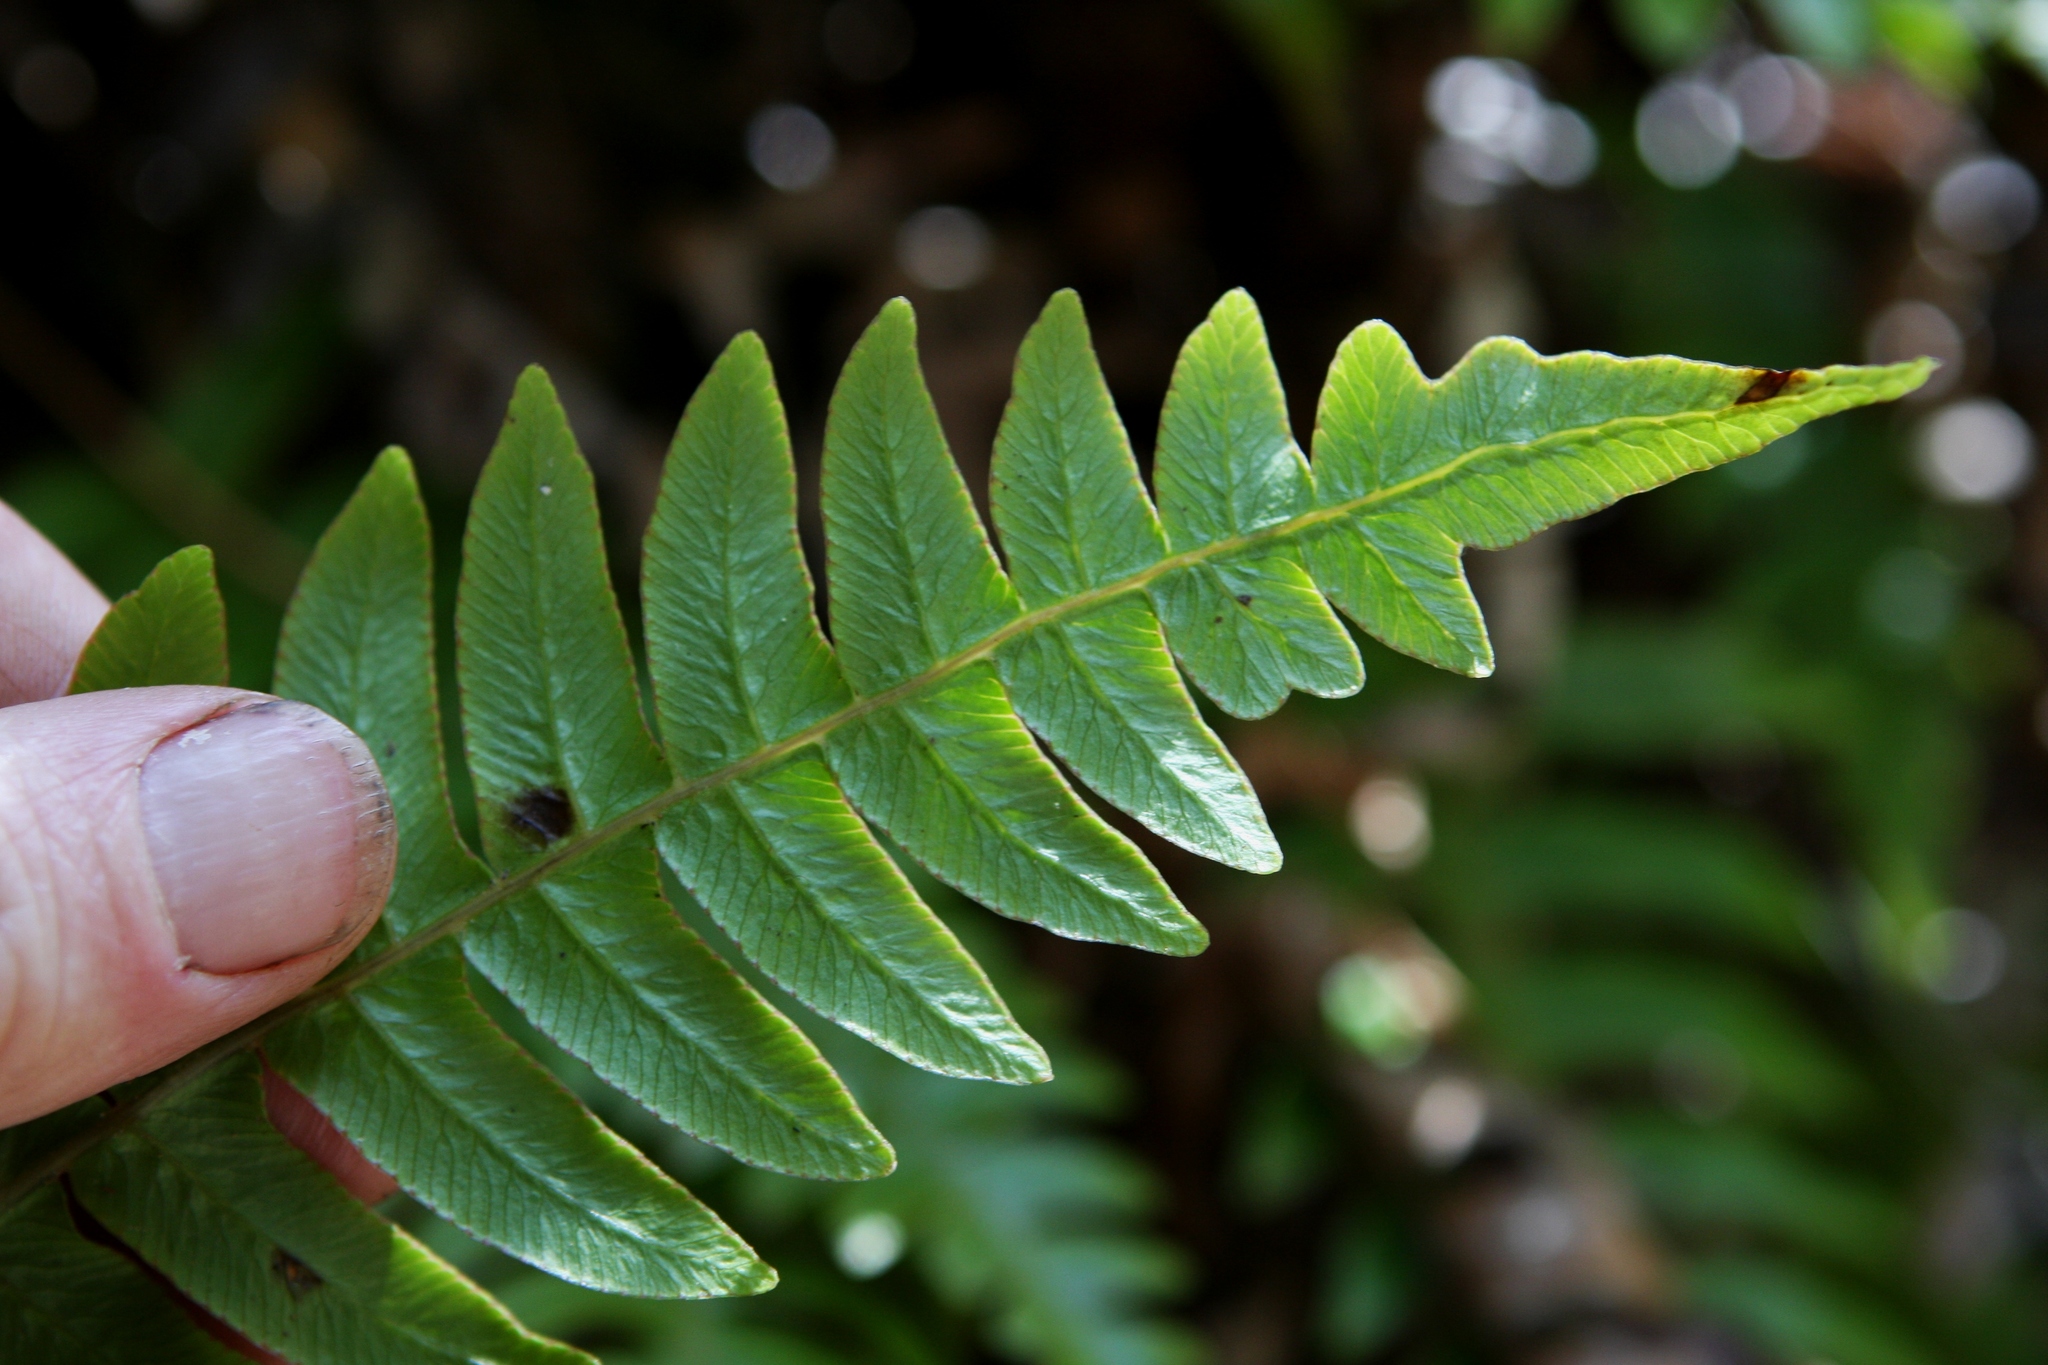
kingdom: Plantae
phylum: Tracheophyta
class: Polypodiopsida
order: Polypodiales
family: Blechnaceae
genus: Cranfillia
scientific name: Cranfillia deltoides
